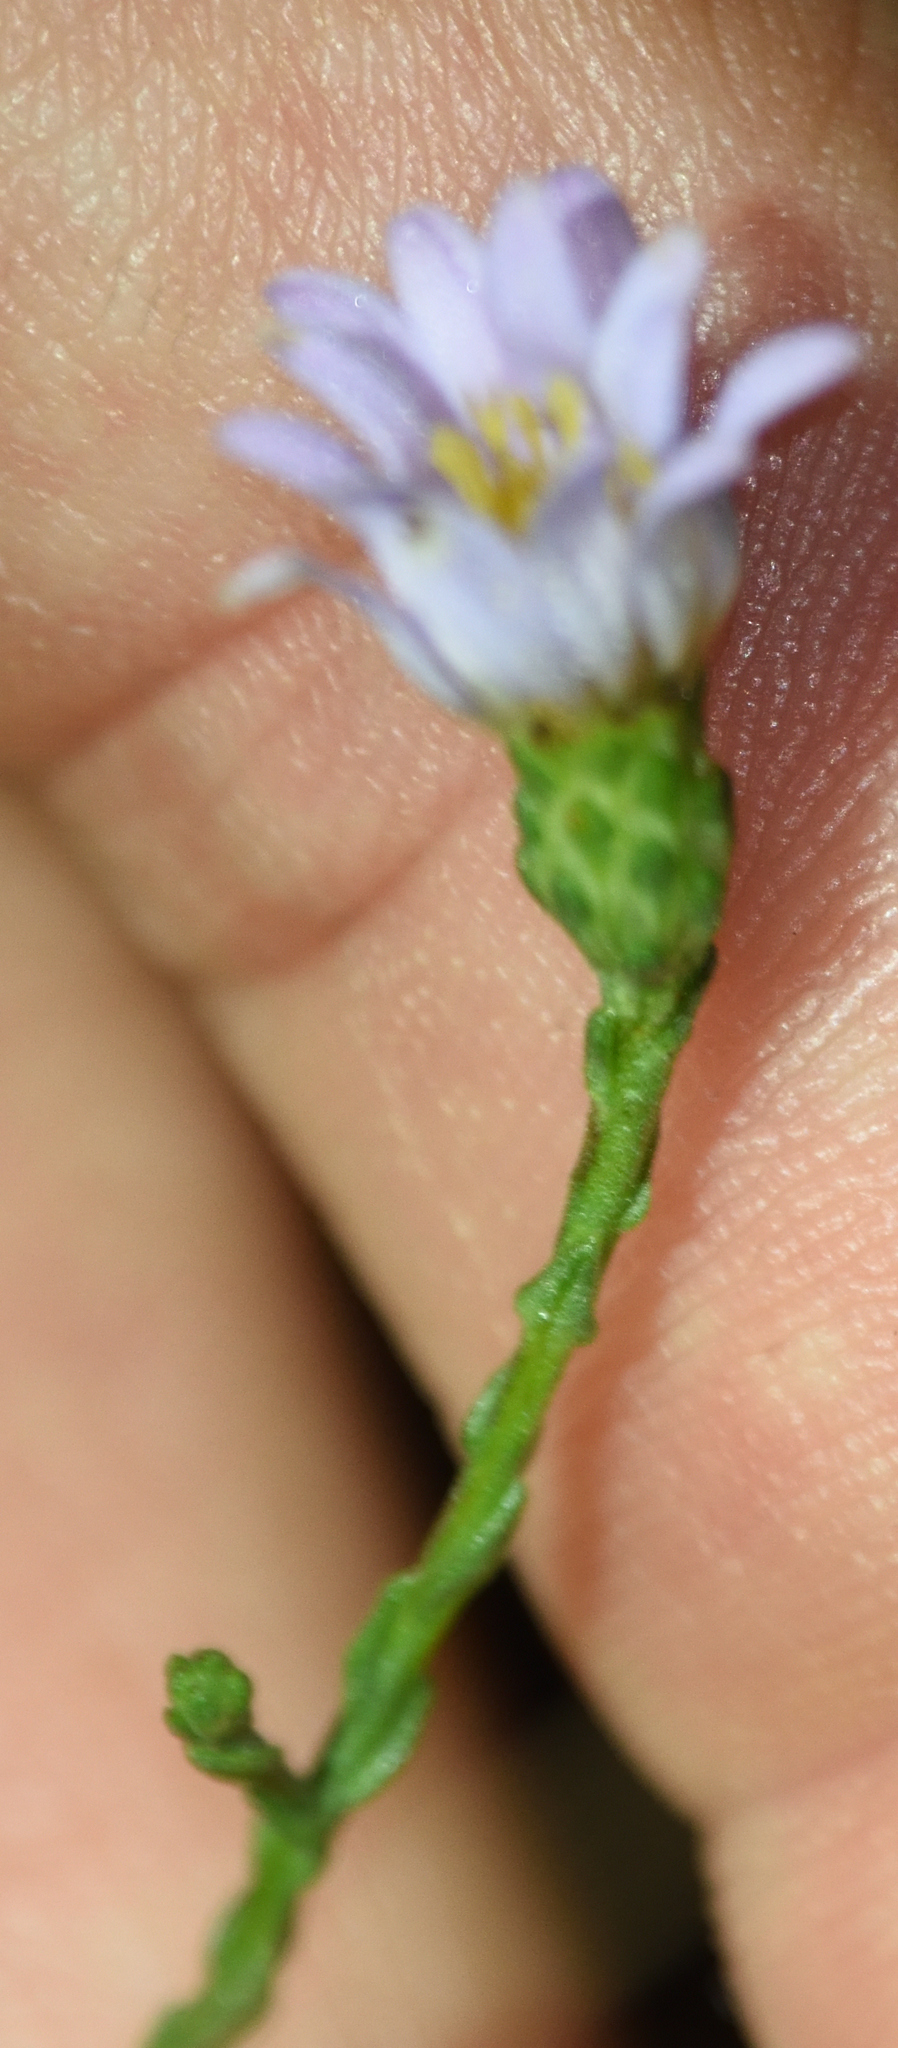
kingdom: Plantae
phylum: Tracheophyta
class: Magnoliopsida
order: Asterales
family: Asteraceae
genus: Symphyotrichum
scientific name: Symphyotrichum adnatum
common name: Scale-leaf aster
